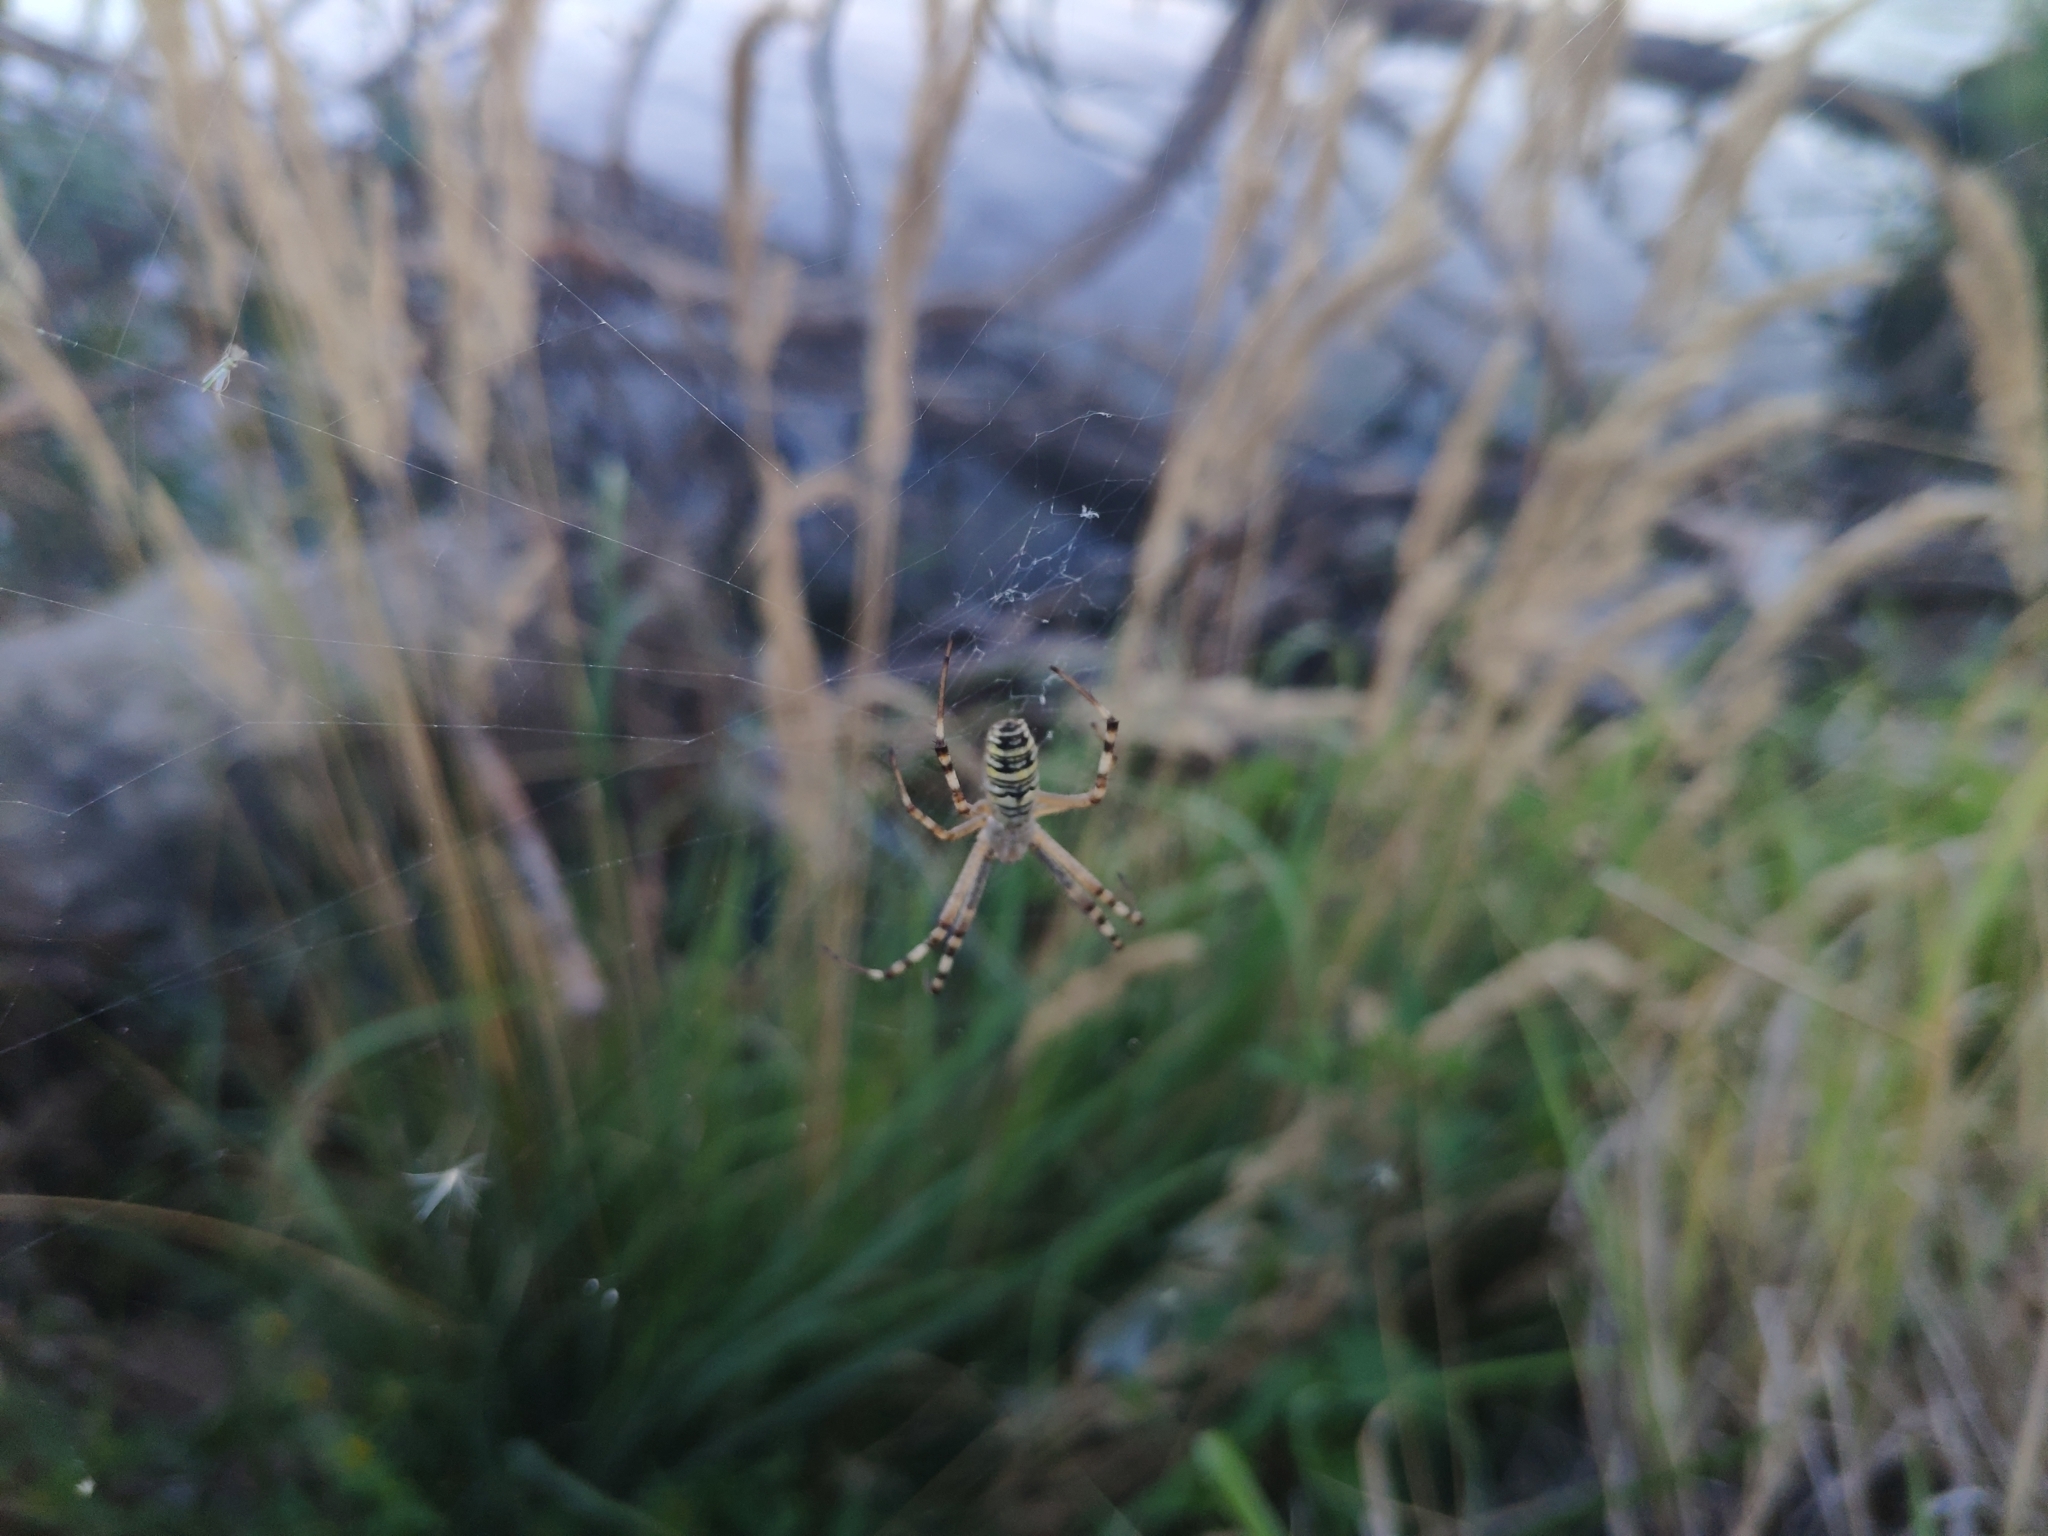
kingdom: Animalia
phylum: Arthropoda
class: Arachnida
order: Araneae
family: Araneidae
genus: Argiope
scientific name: Argiope bruennichi
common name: Wasp spider
